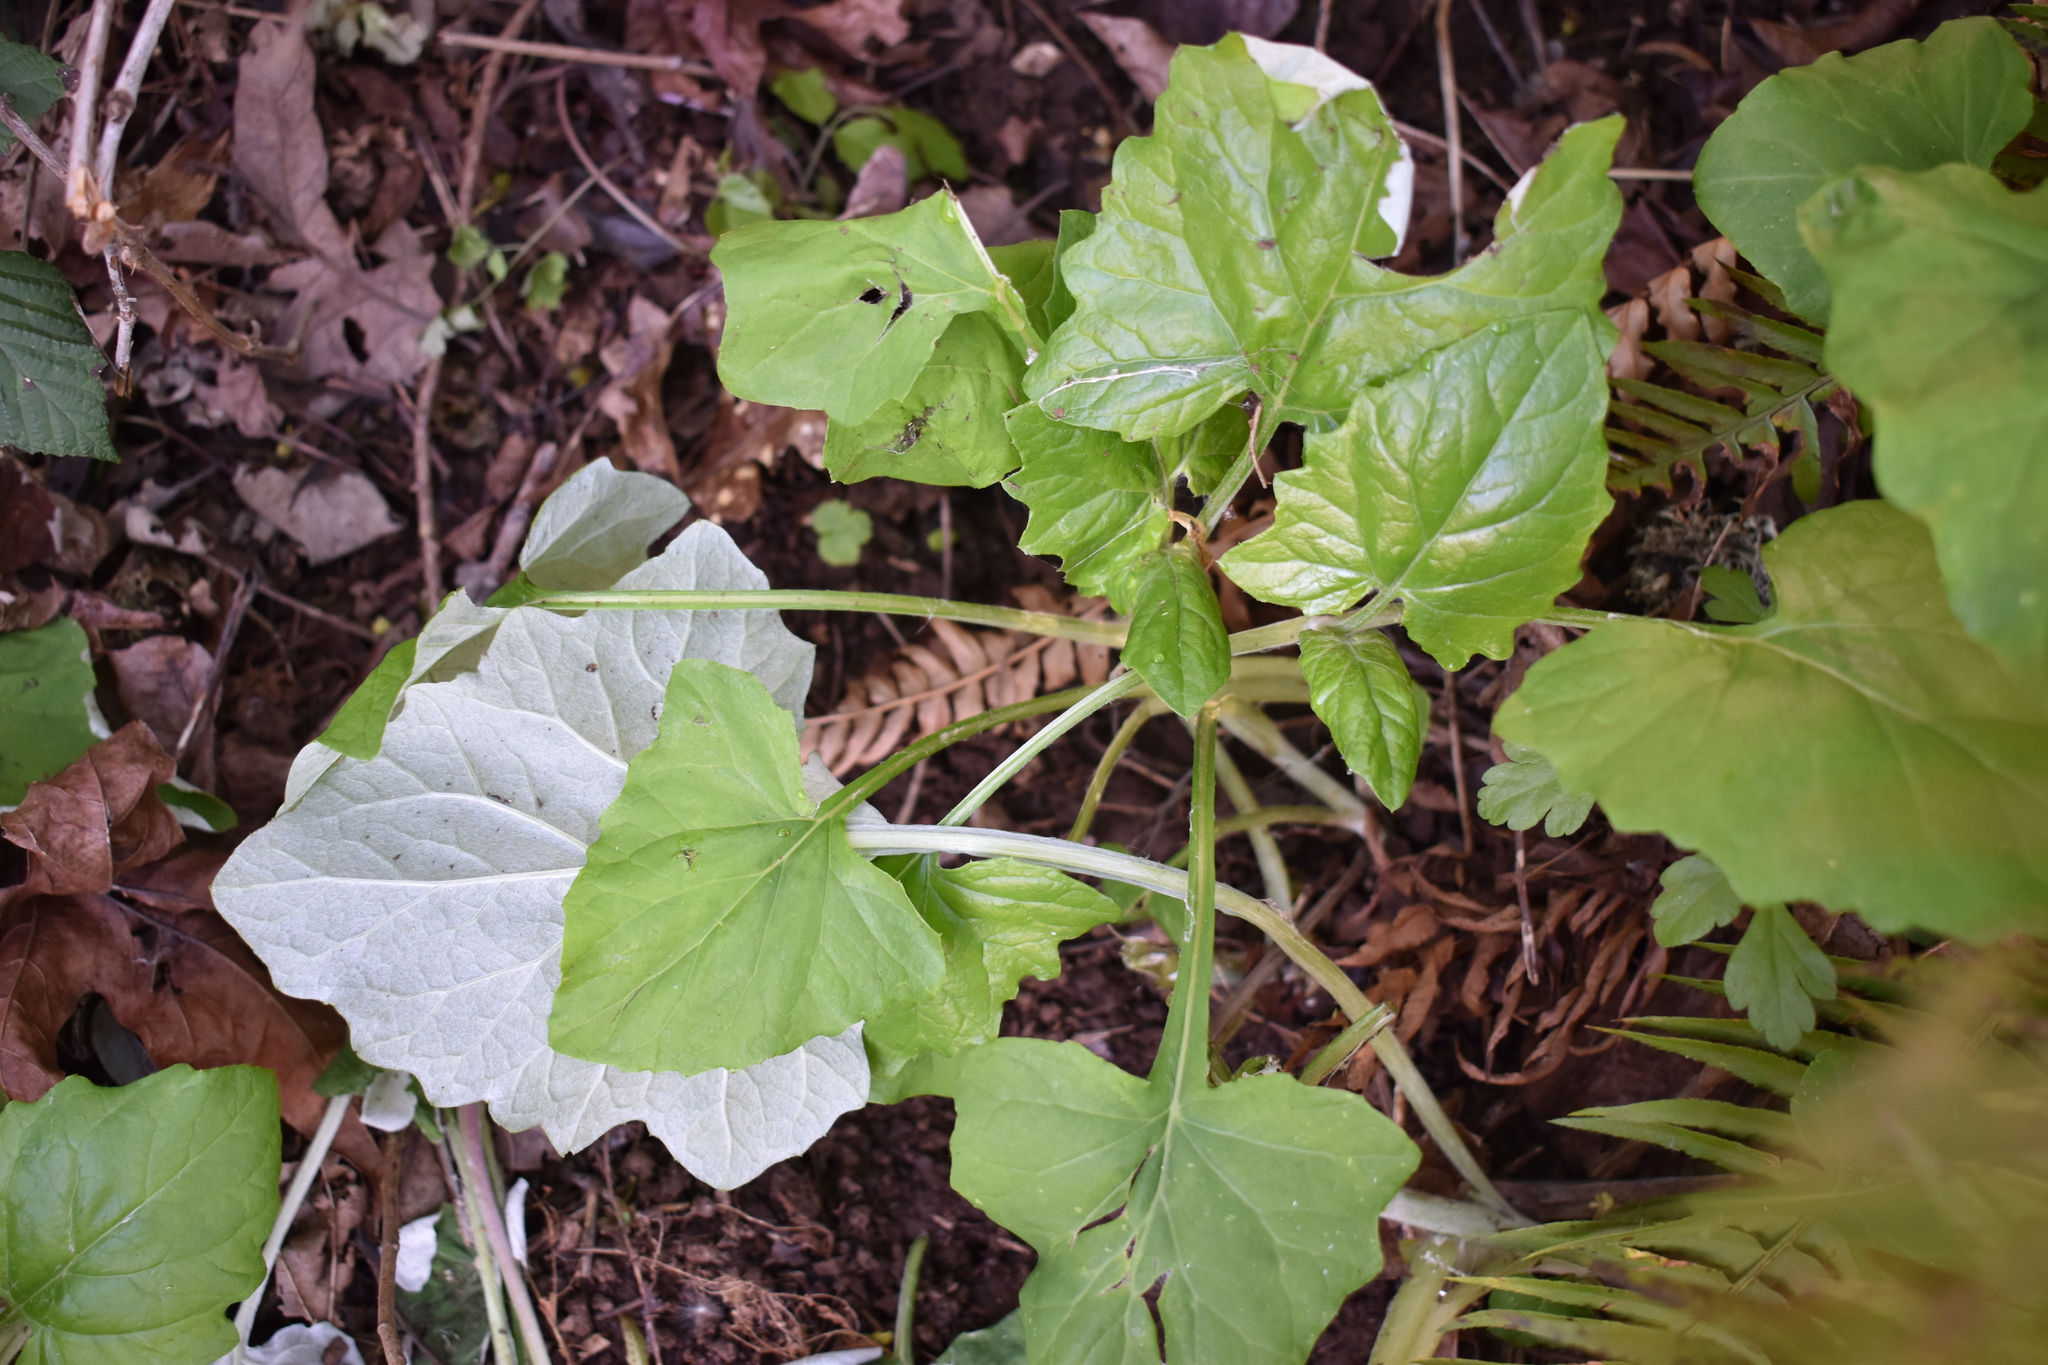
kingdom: Plantae
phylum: Tracheophyta
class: Magnoliopsida
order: Asterales
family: Asteraceae
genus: Adenocaulon
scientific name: Adenocaulon bicolor
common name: Trailplant
